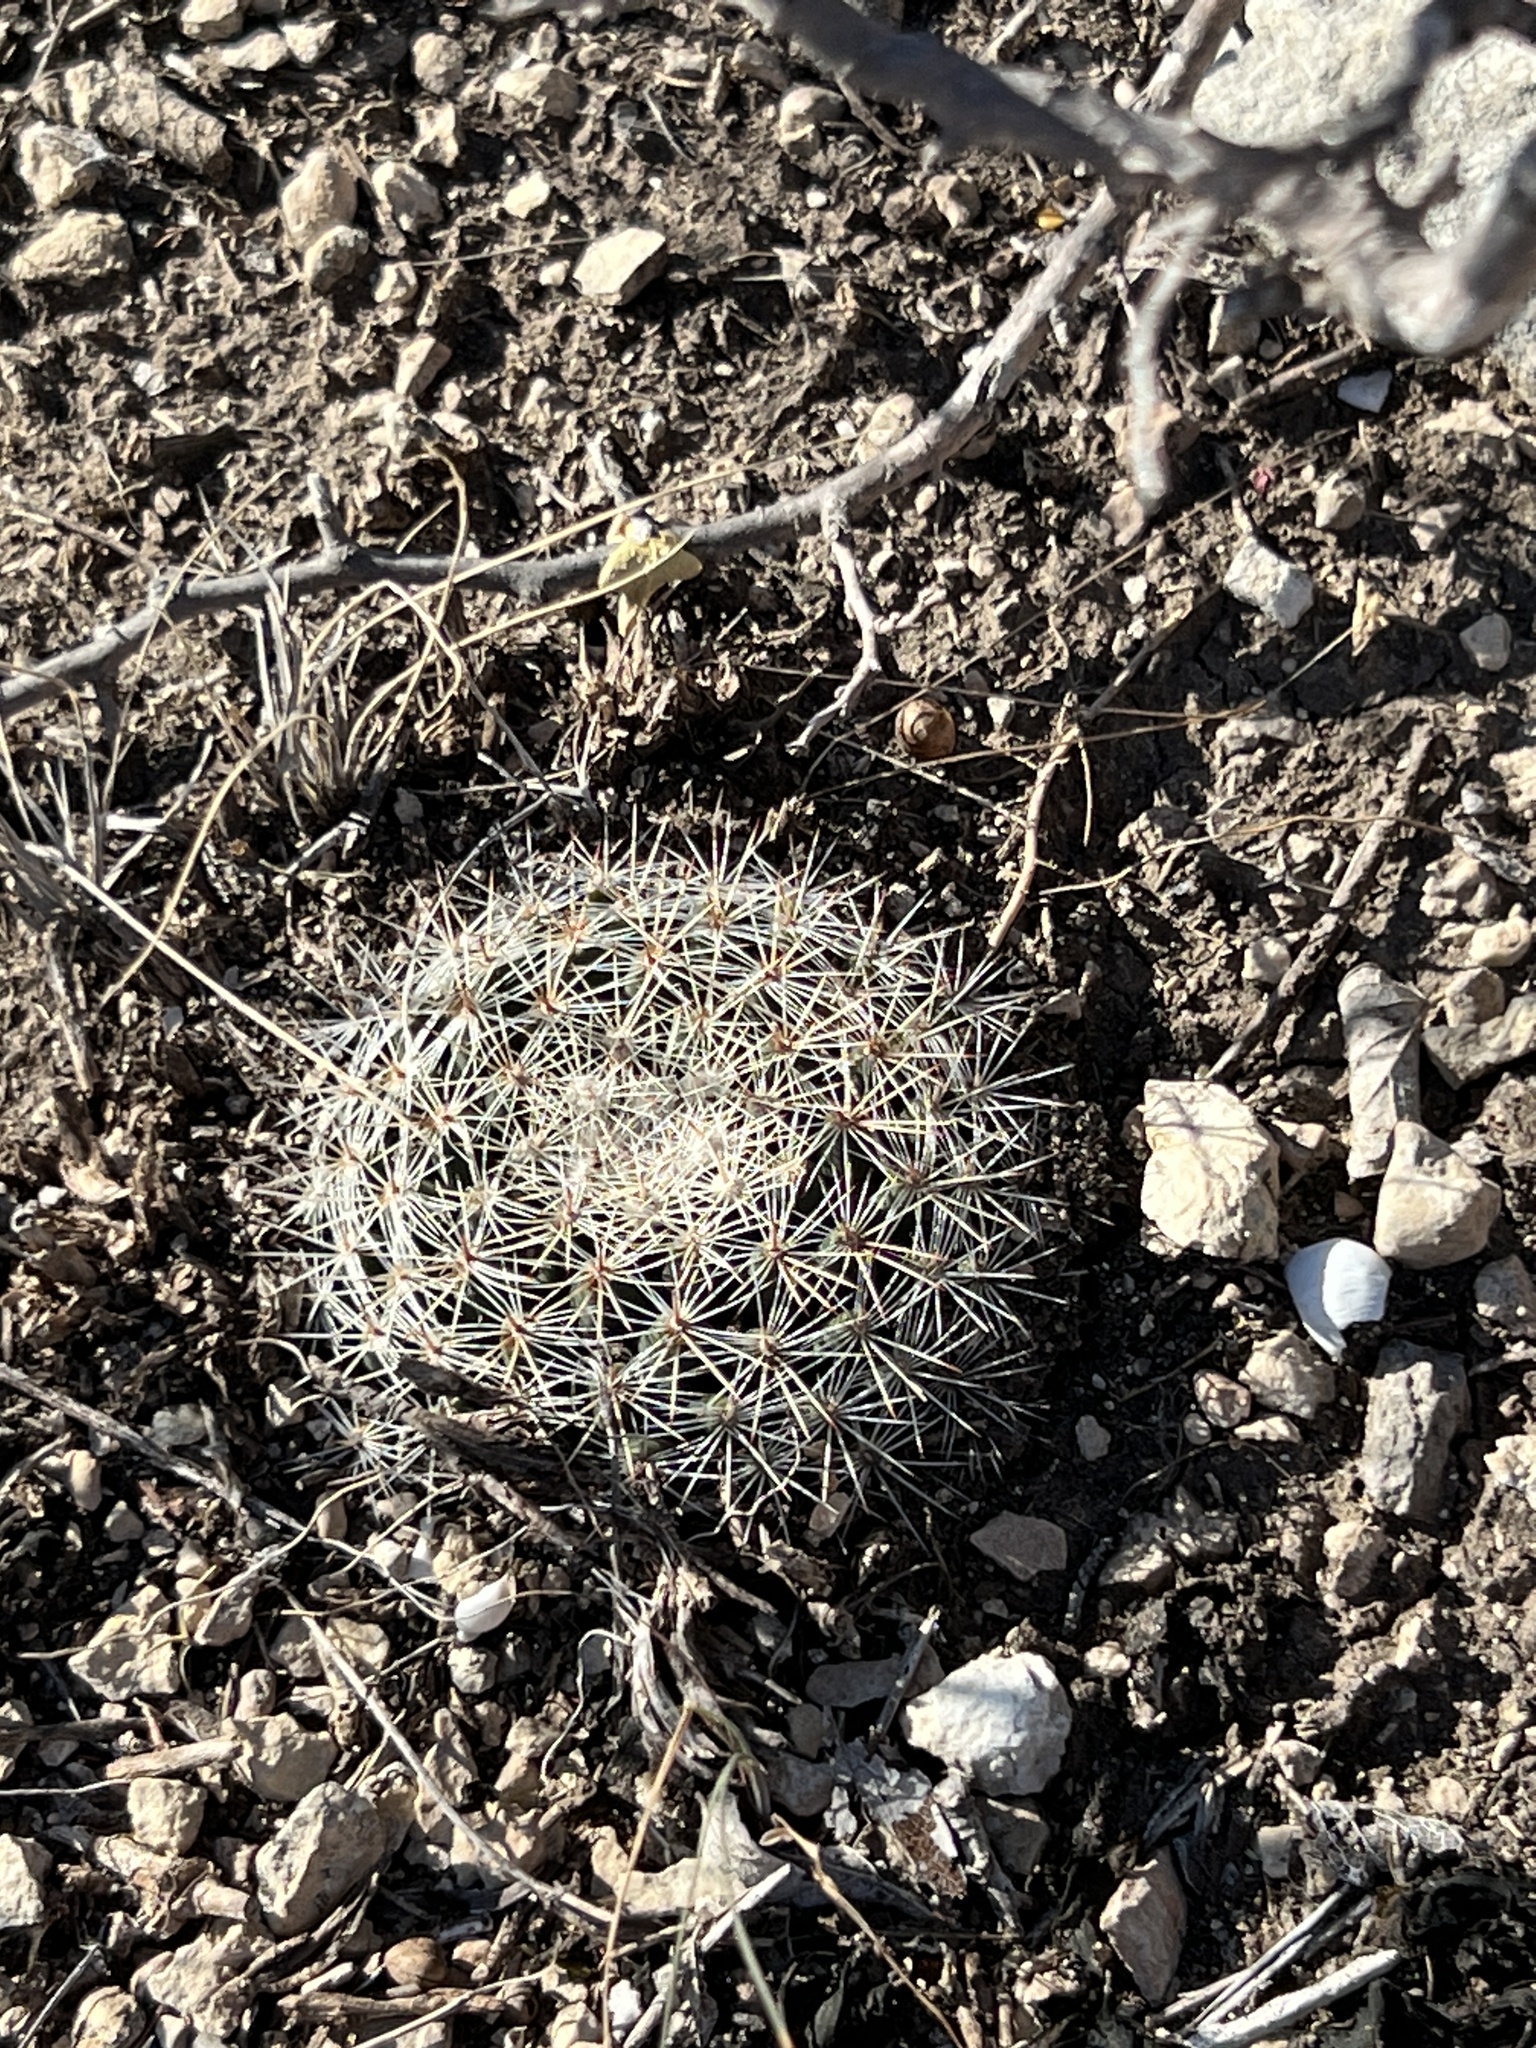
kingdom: Plantae
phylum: Tracheophyta
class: Magnoliopsida
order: Caryophyllales
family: Cactaceae
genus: Mammillaria
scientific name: Mammillaria heyderi
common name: Little nipple cactus
